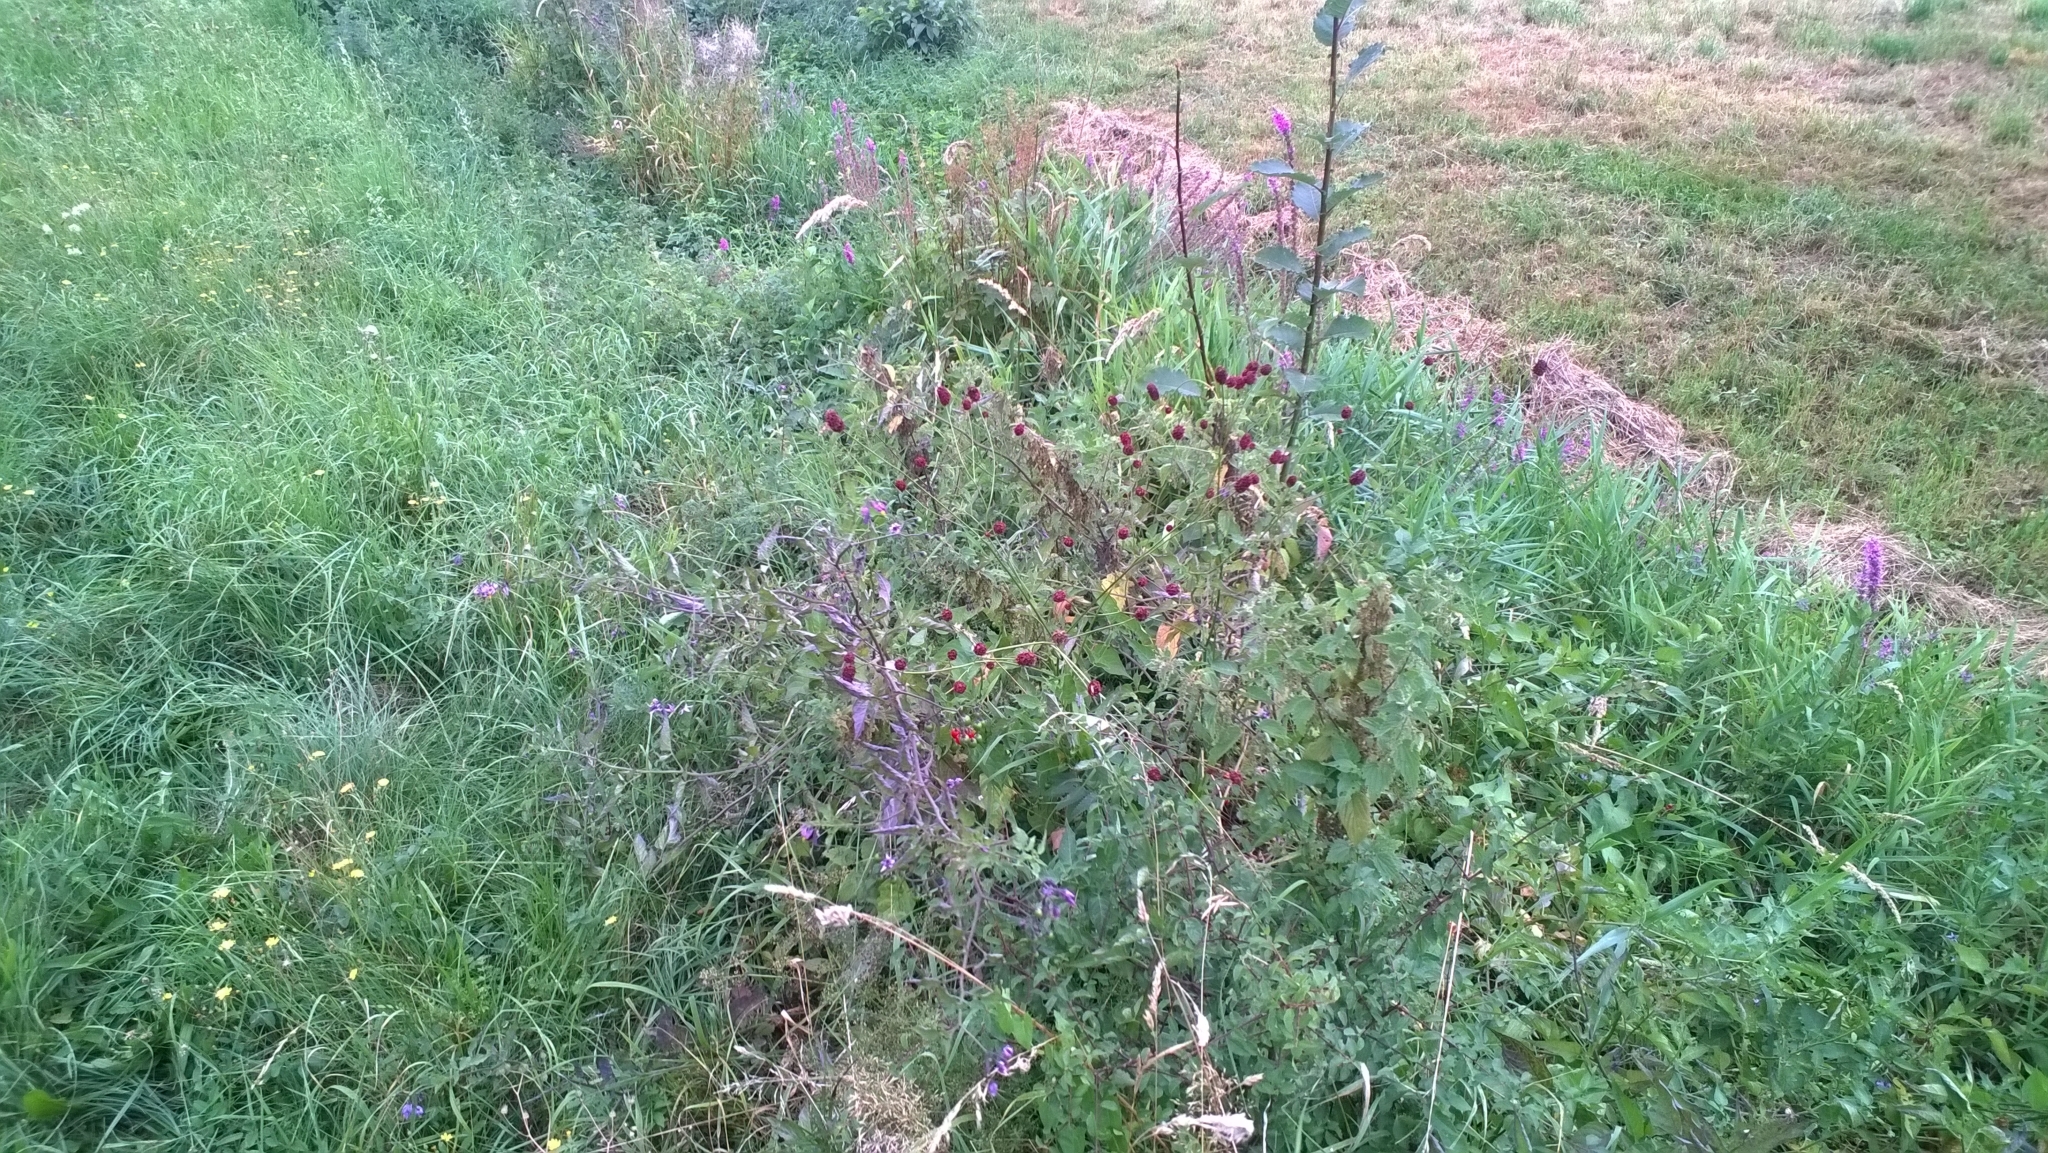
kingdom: Plantae
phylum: Tracheophyta
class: Magnoliopsida
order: Rosales
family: Rosaceae
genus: Sanguisorba
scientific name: Sanguisorba officinalis
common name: Great burnet
